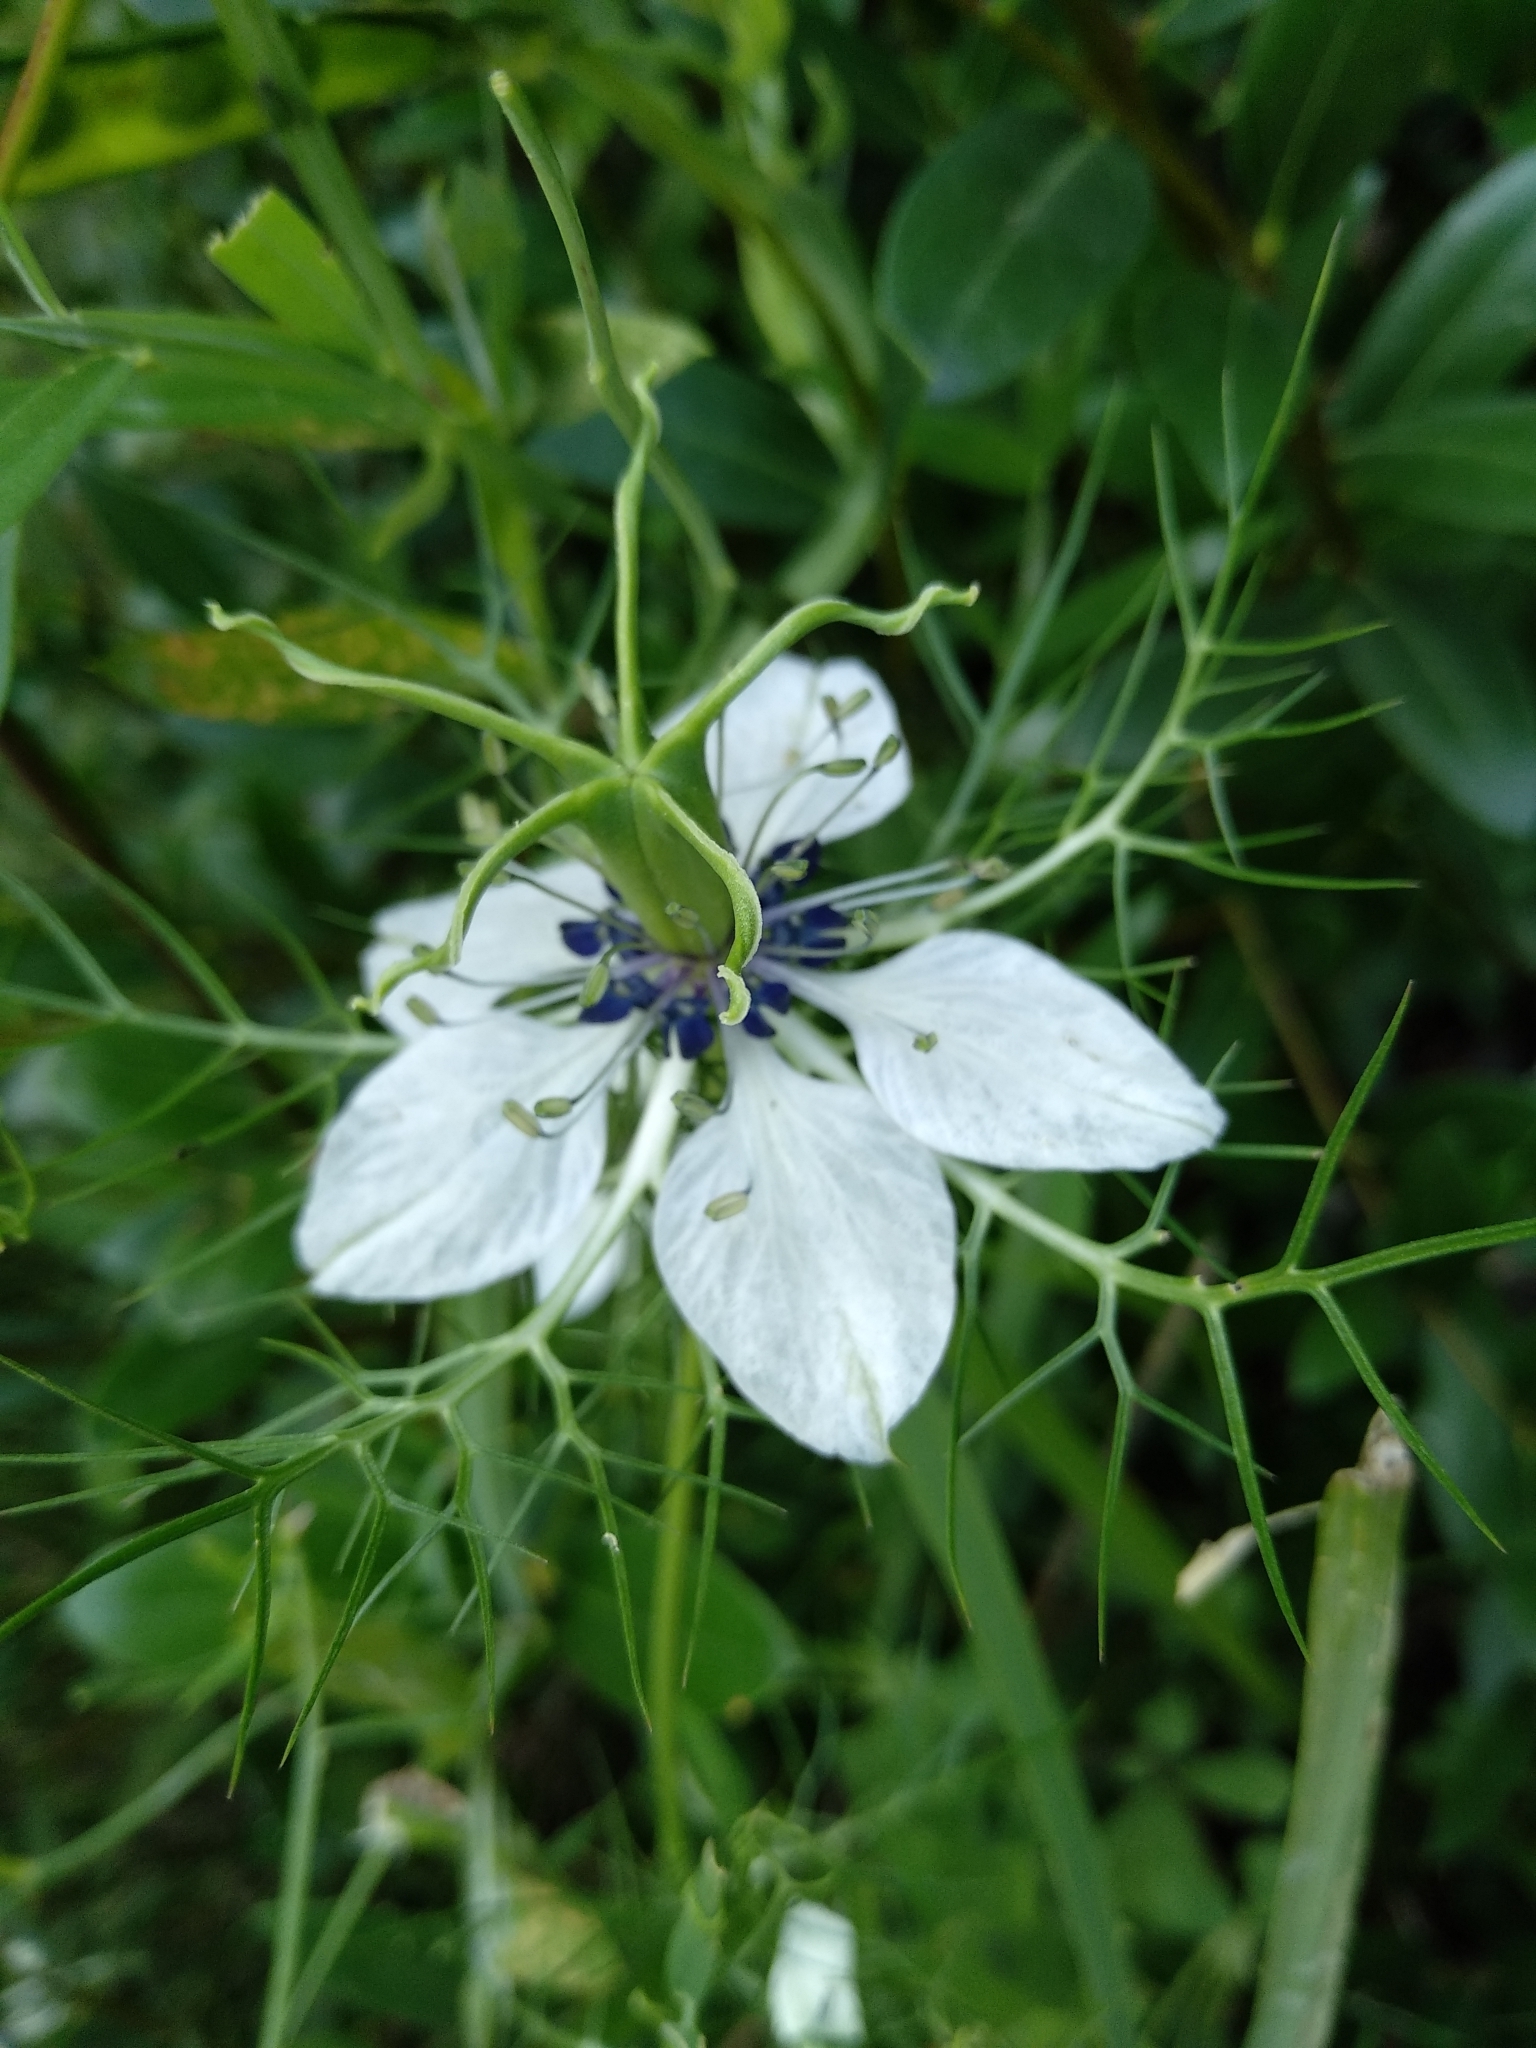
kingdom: Plantae
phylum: Tracheophyta
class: Magnoliopsida
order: Ranunculales
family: Ranunculaceae
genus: Nigella
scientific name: Nigella damascena
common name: Love-in-a-mist
